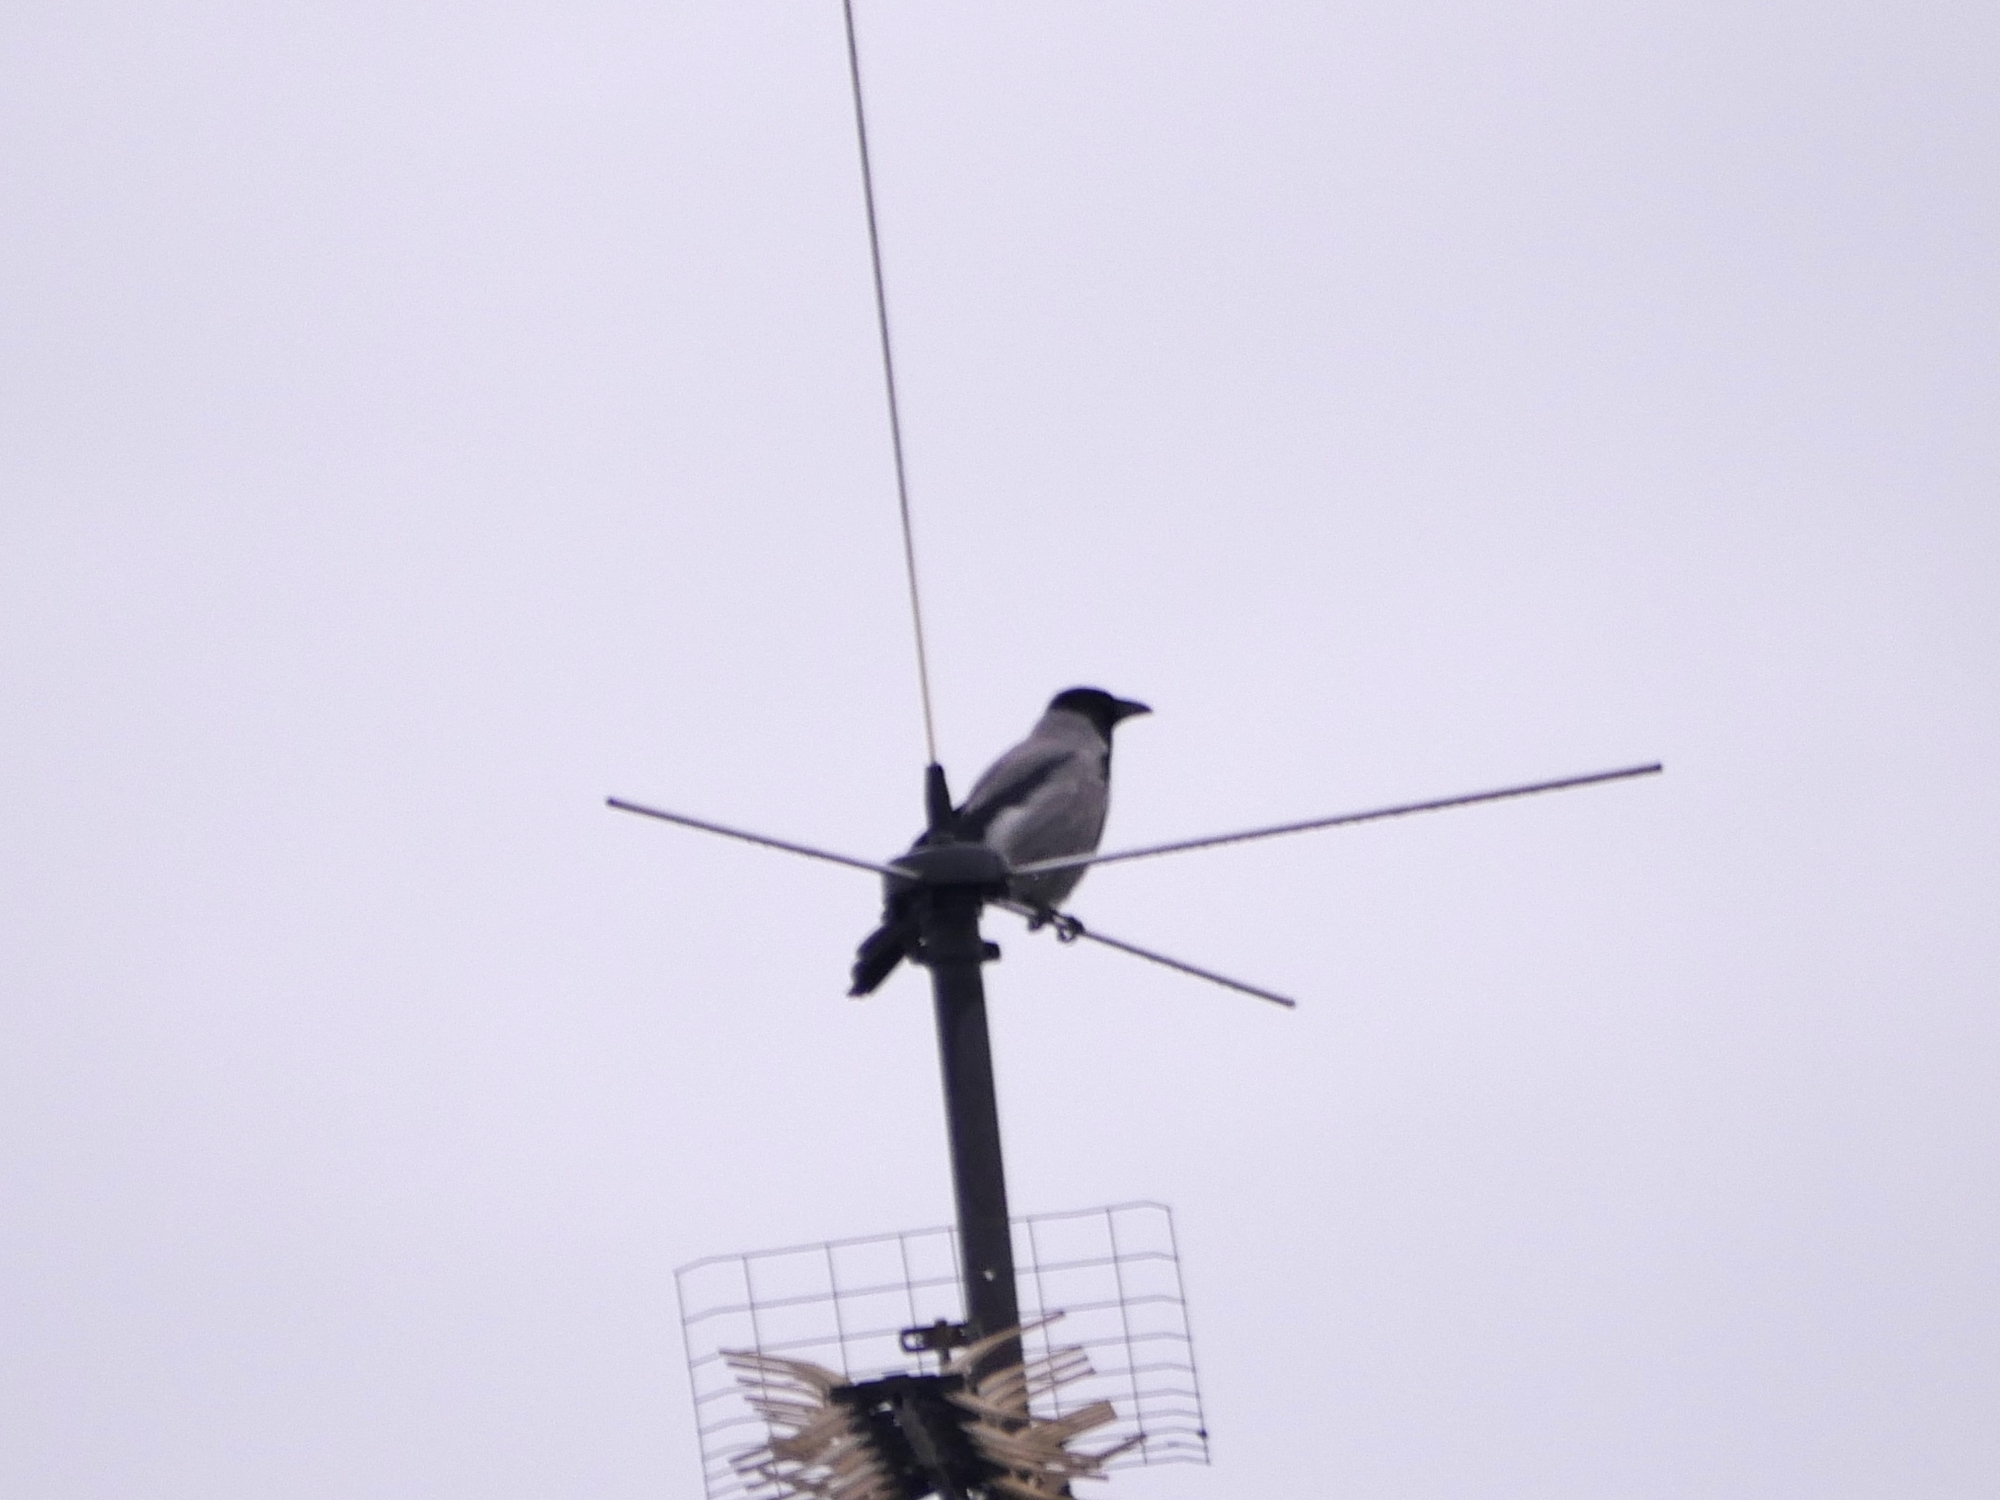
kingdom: Animalia
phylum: Chordata
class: Aves
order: Passeriformes
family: Corvidae
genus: Corvus
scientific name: Corvus cornix
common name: Hooded crow
